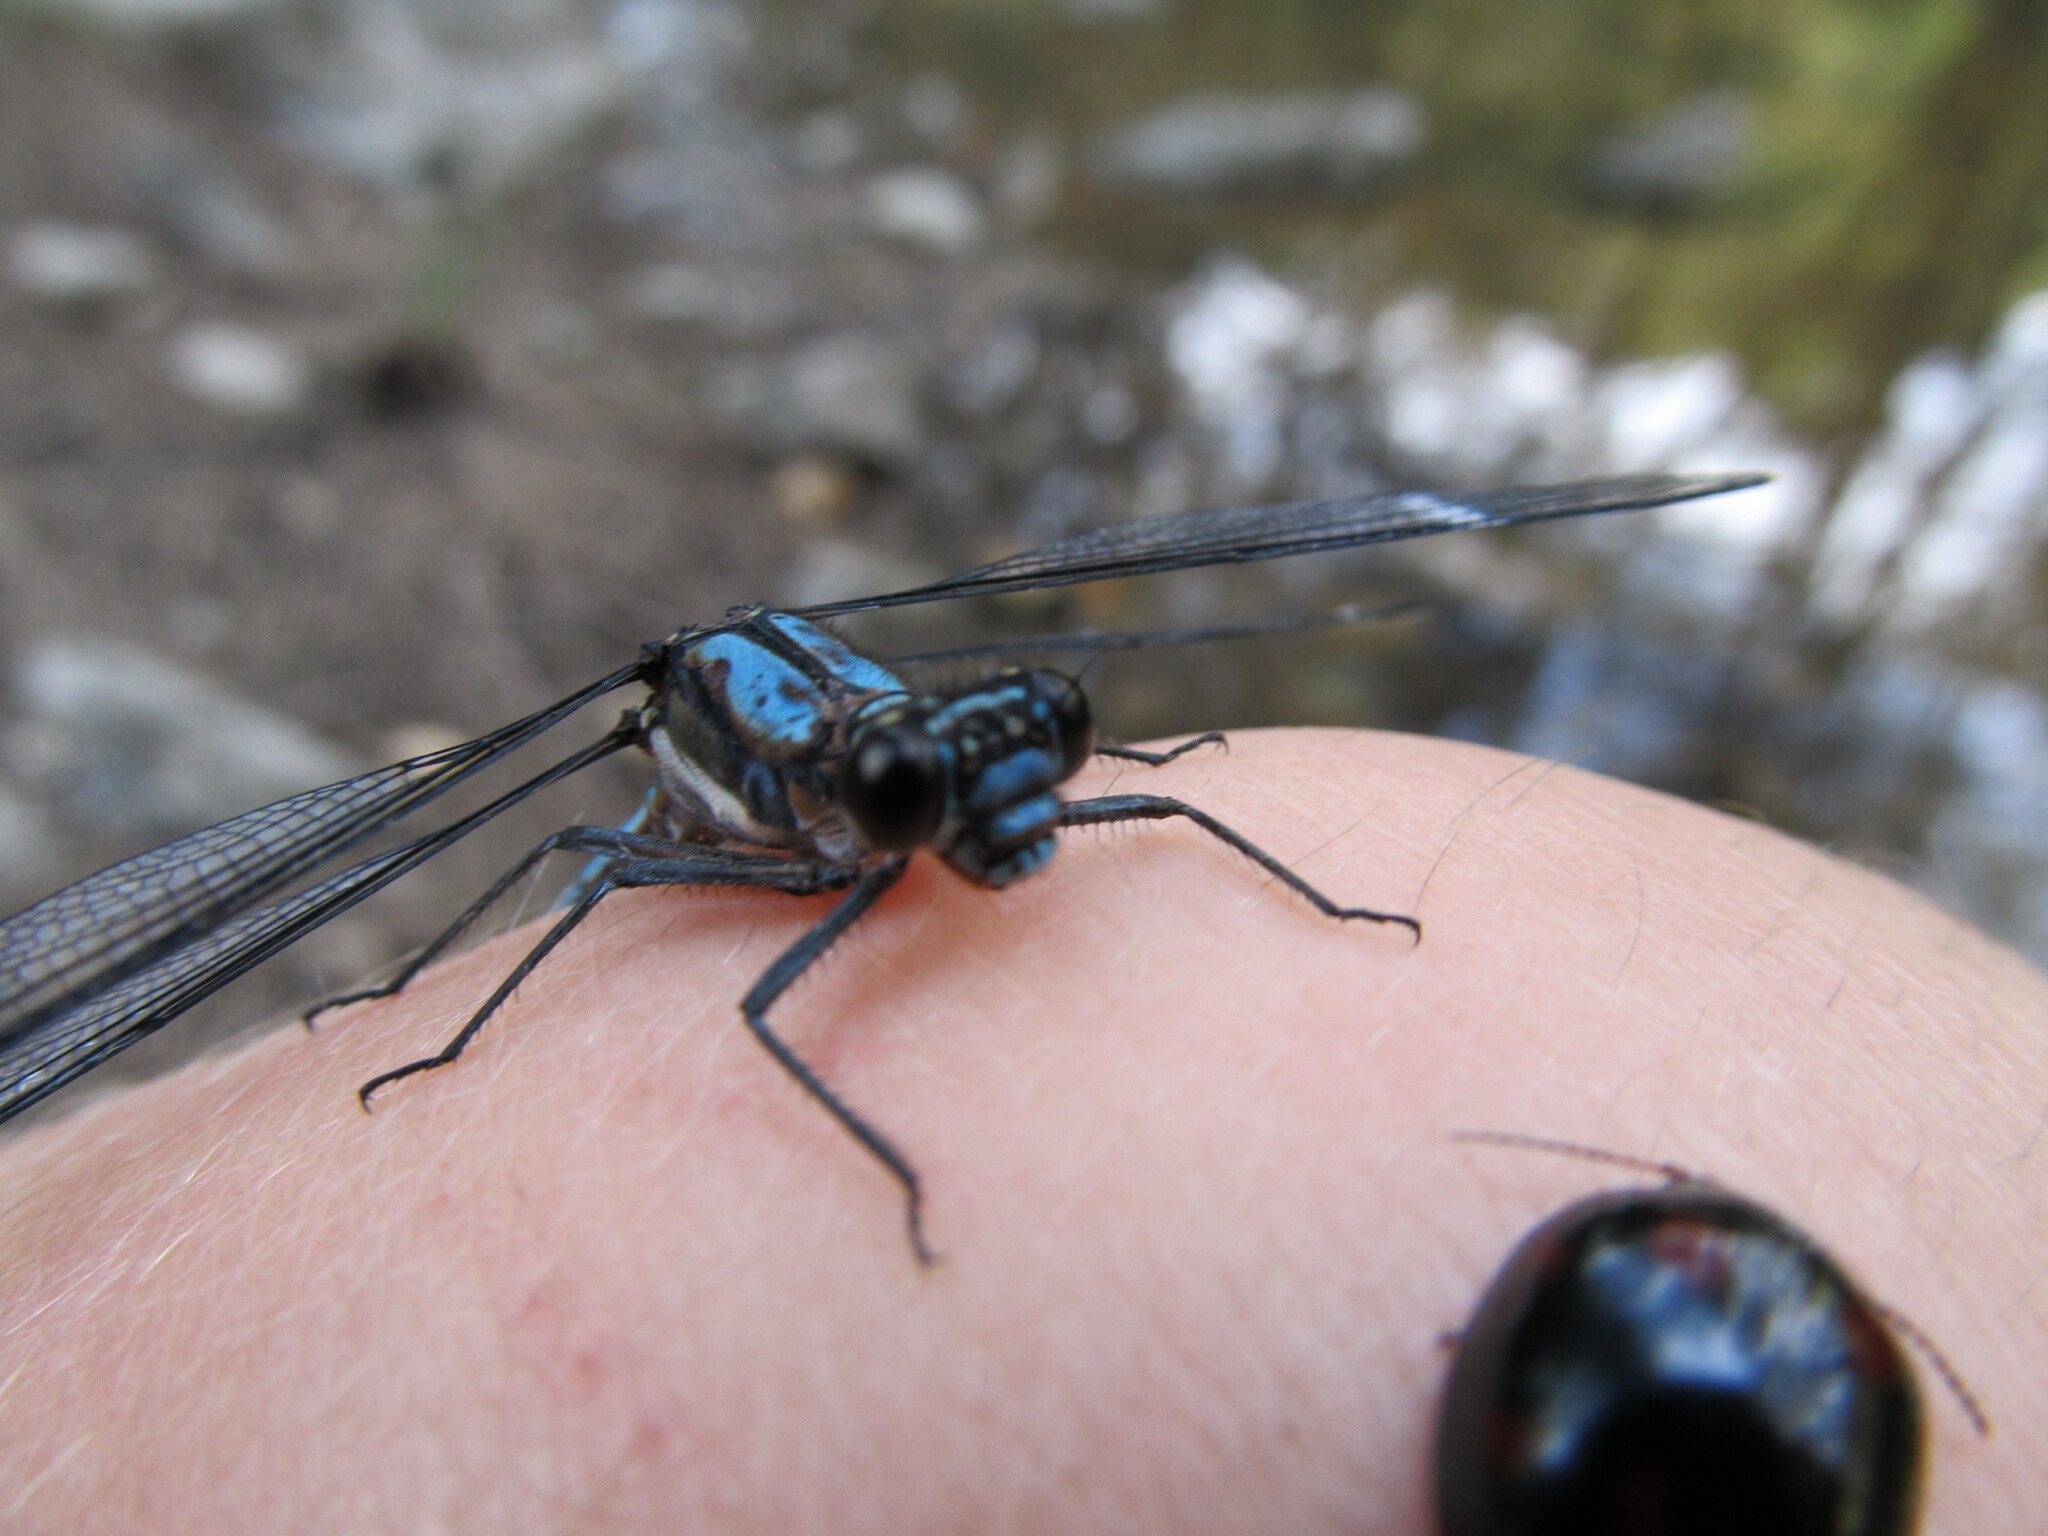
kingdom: Animalia
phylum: Arthropoda
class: Insecta
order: Odonata
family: Lestoideidae
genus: Diphlebia
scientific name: Diphlebia lestoides
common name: Whitewater rockmaster
